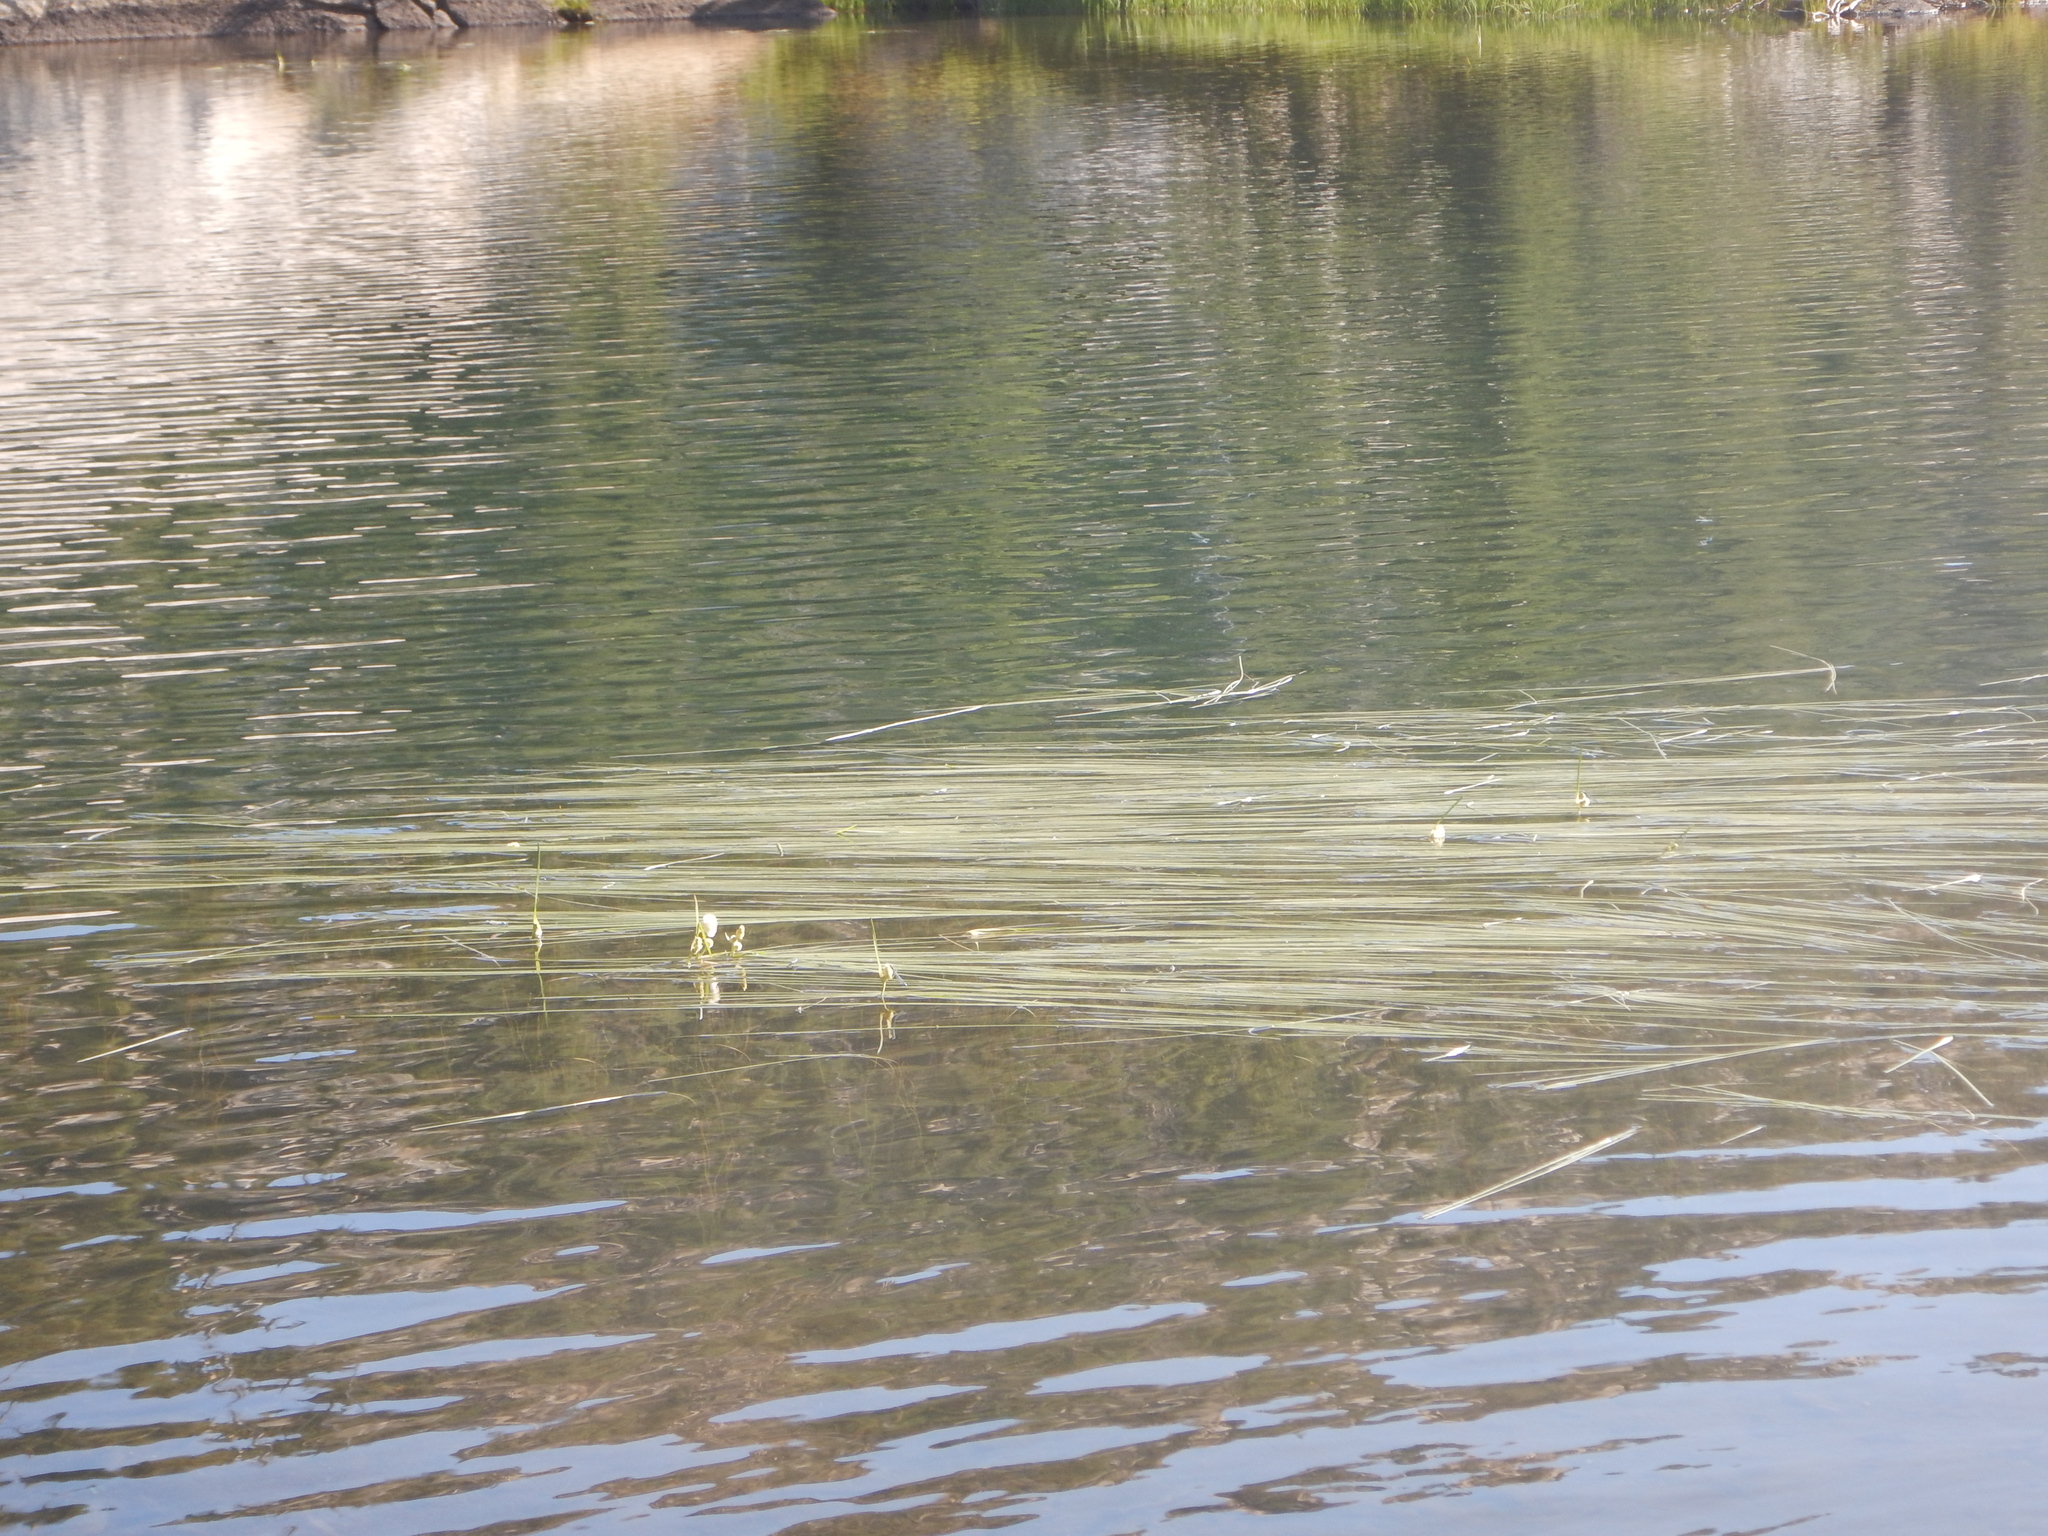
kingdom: Plantae
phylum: Tracheophyta
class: Liliopsida
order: Poales
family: Typhaceae
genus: Sparganium
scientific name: Sparganium angustifolium
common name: Floating bur-reed
